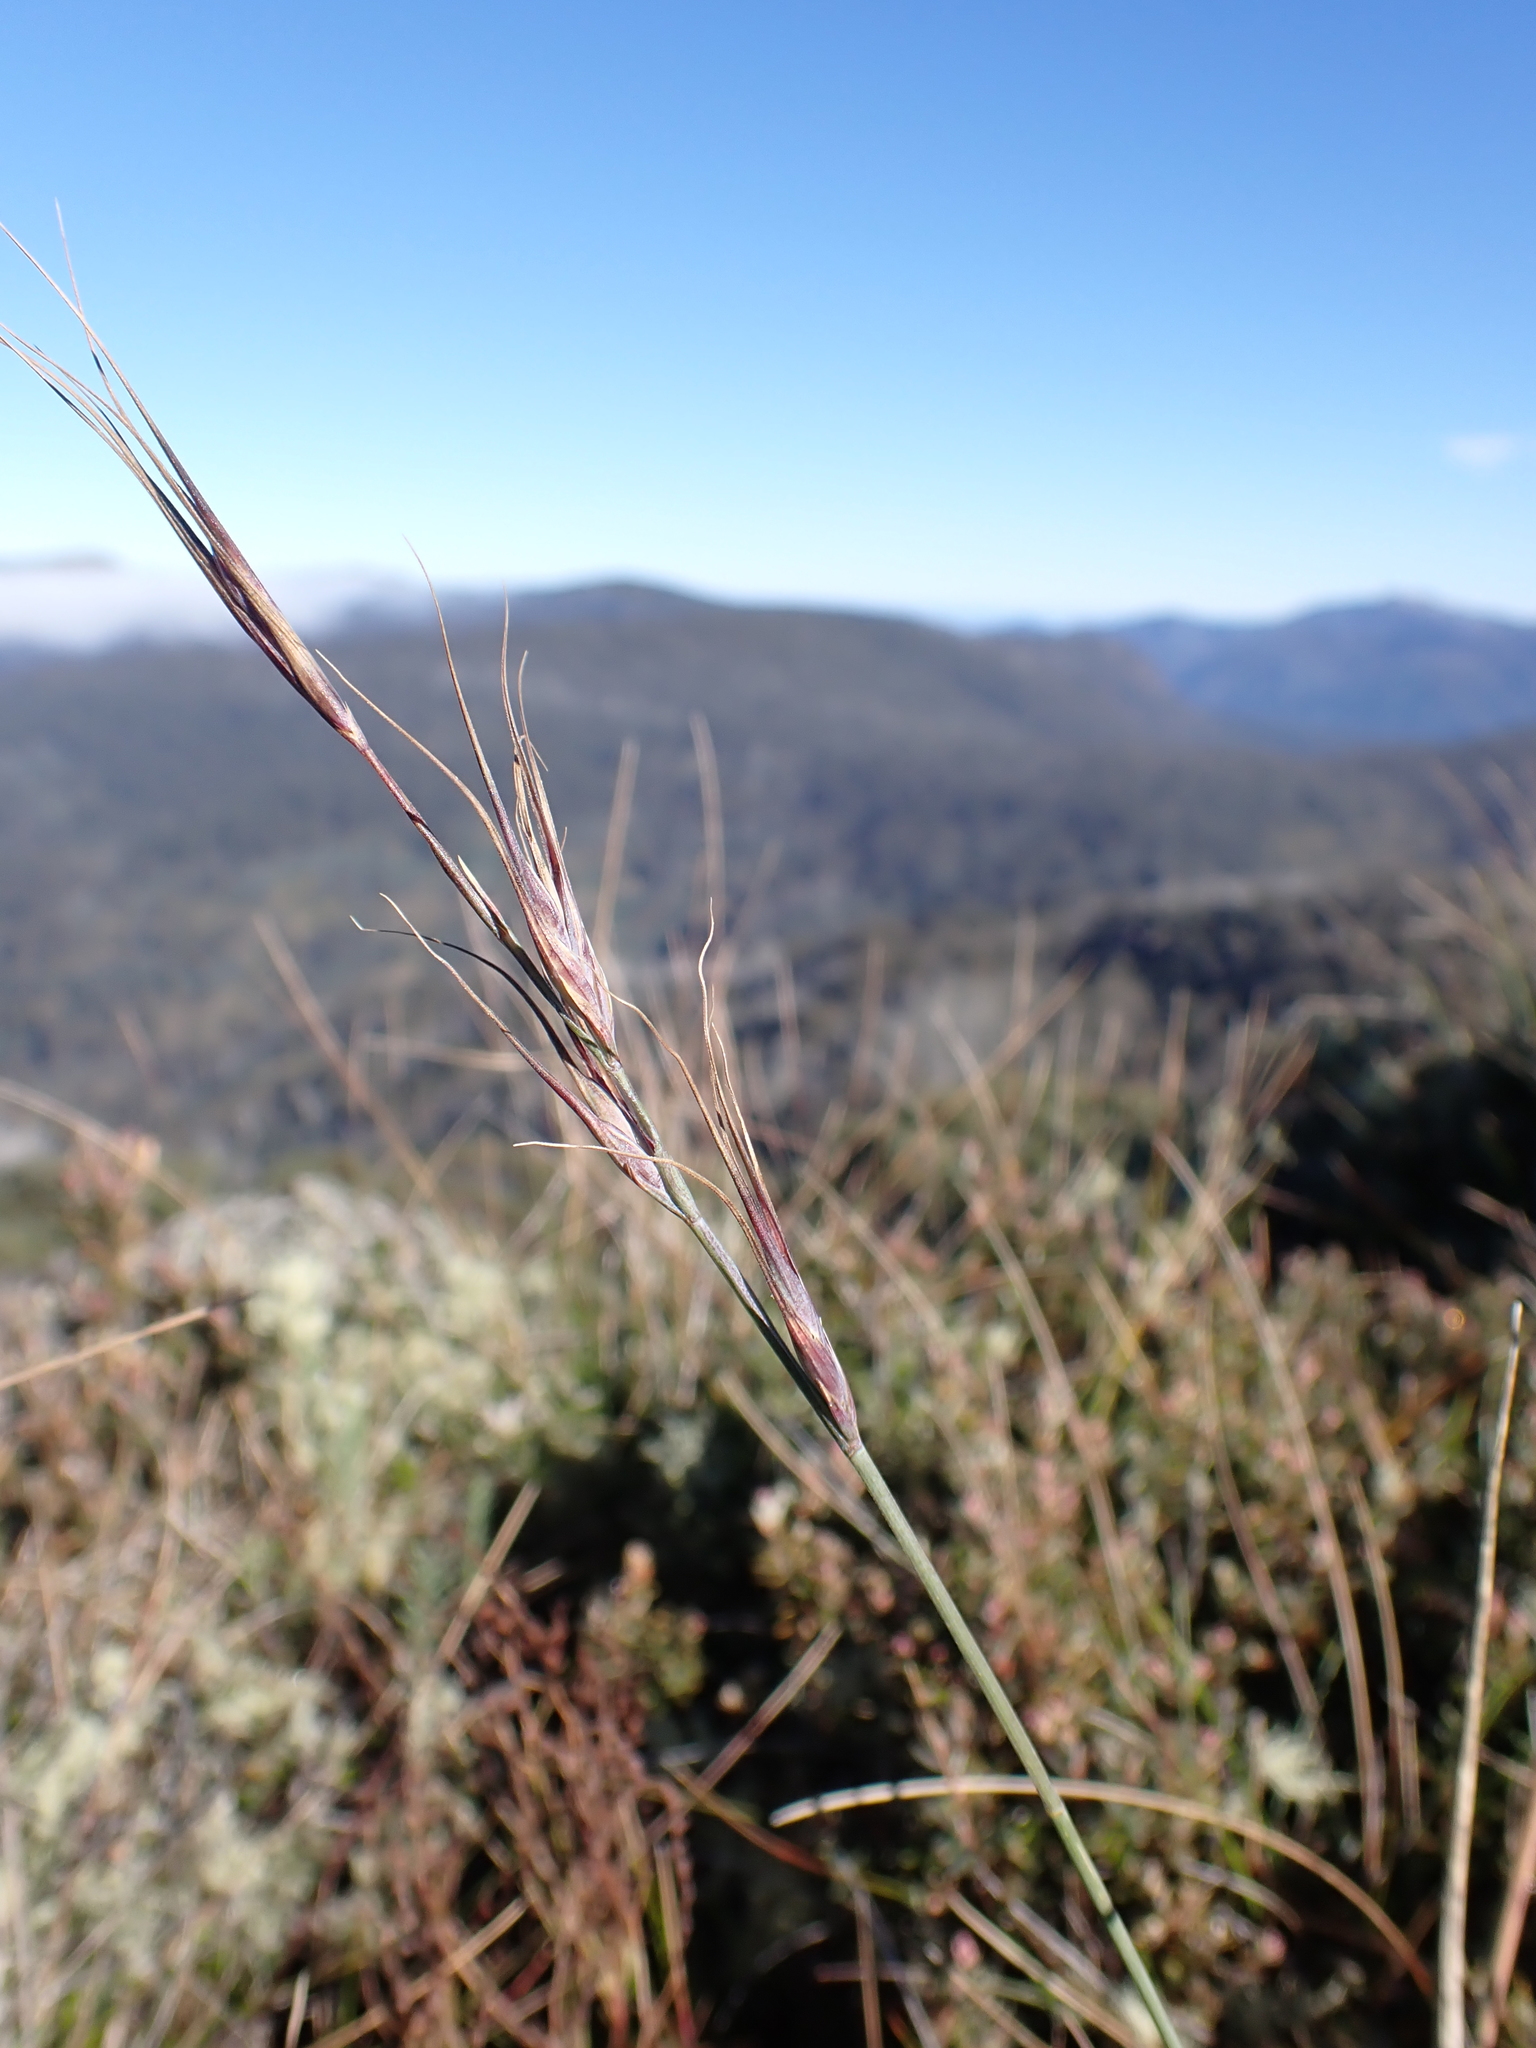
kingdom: Plantae
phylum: Tracheophyta
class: Liliopsida
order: Poales
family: Poaceae
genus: Anthosachne
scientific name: Anthosachne scabra
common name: Common wheatgrass
